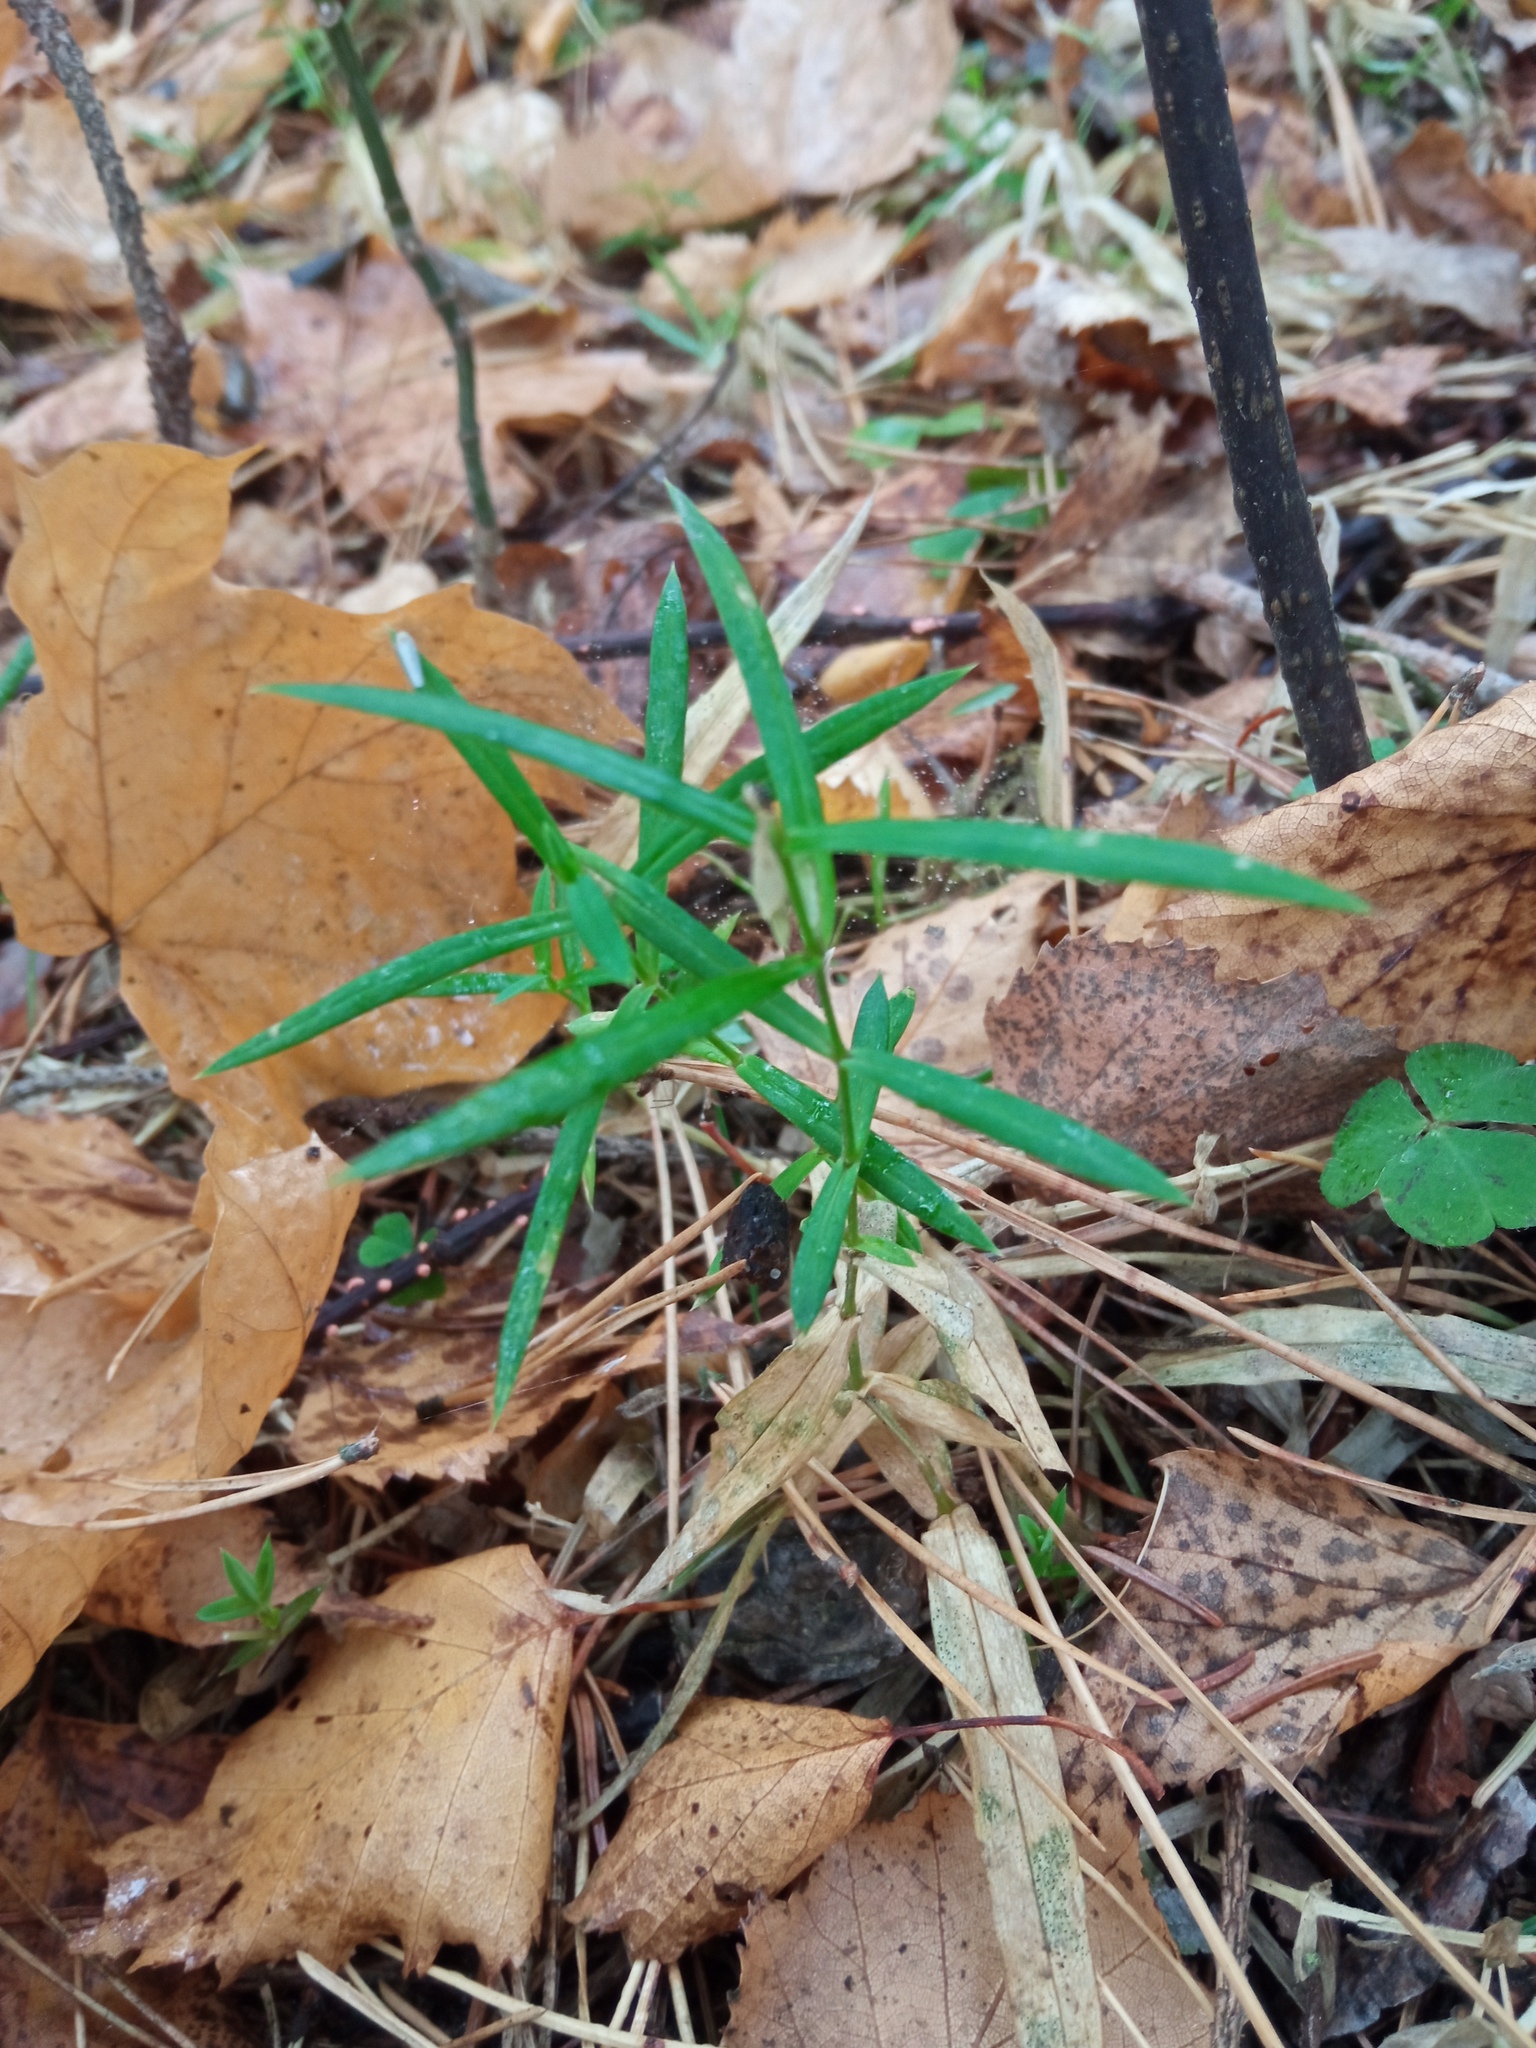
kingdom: Plantae
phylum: Tracheophyta
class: Magnoliopsida
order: Caryophyllales
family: Caryophyllaceae
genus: Rabelera
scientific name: Rabelera holostea
